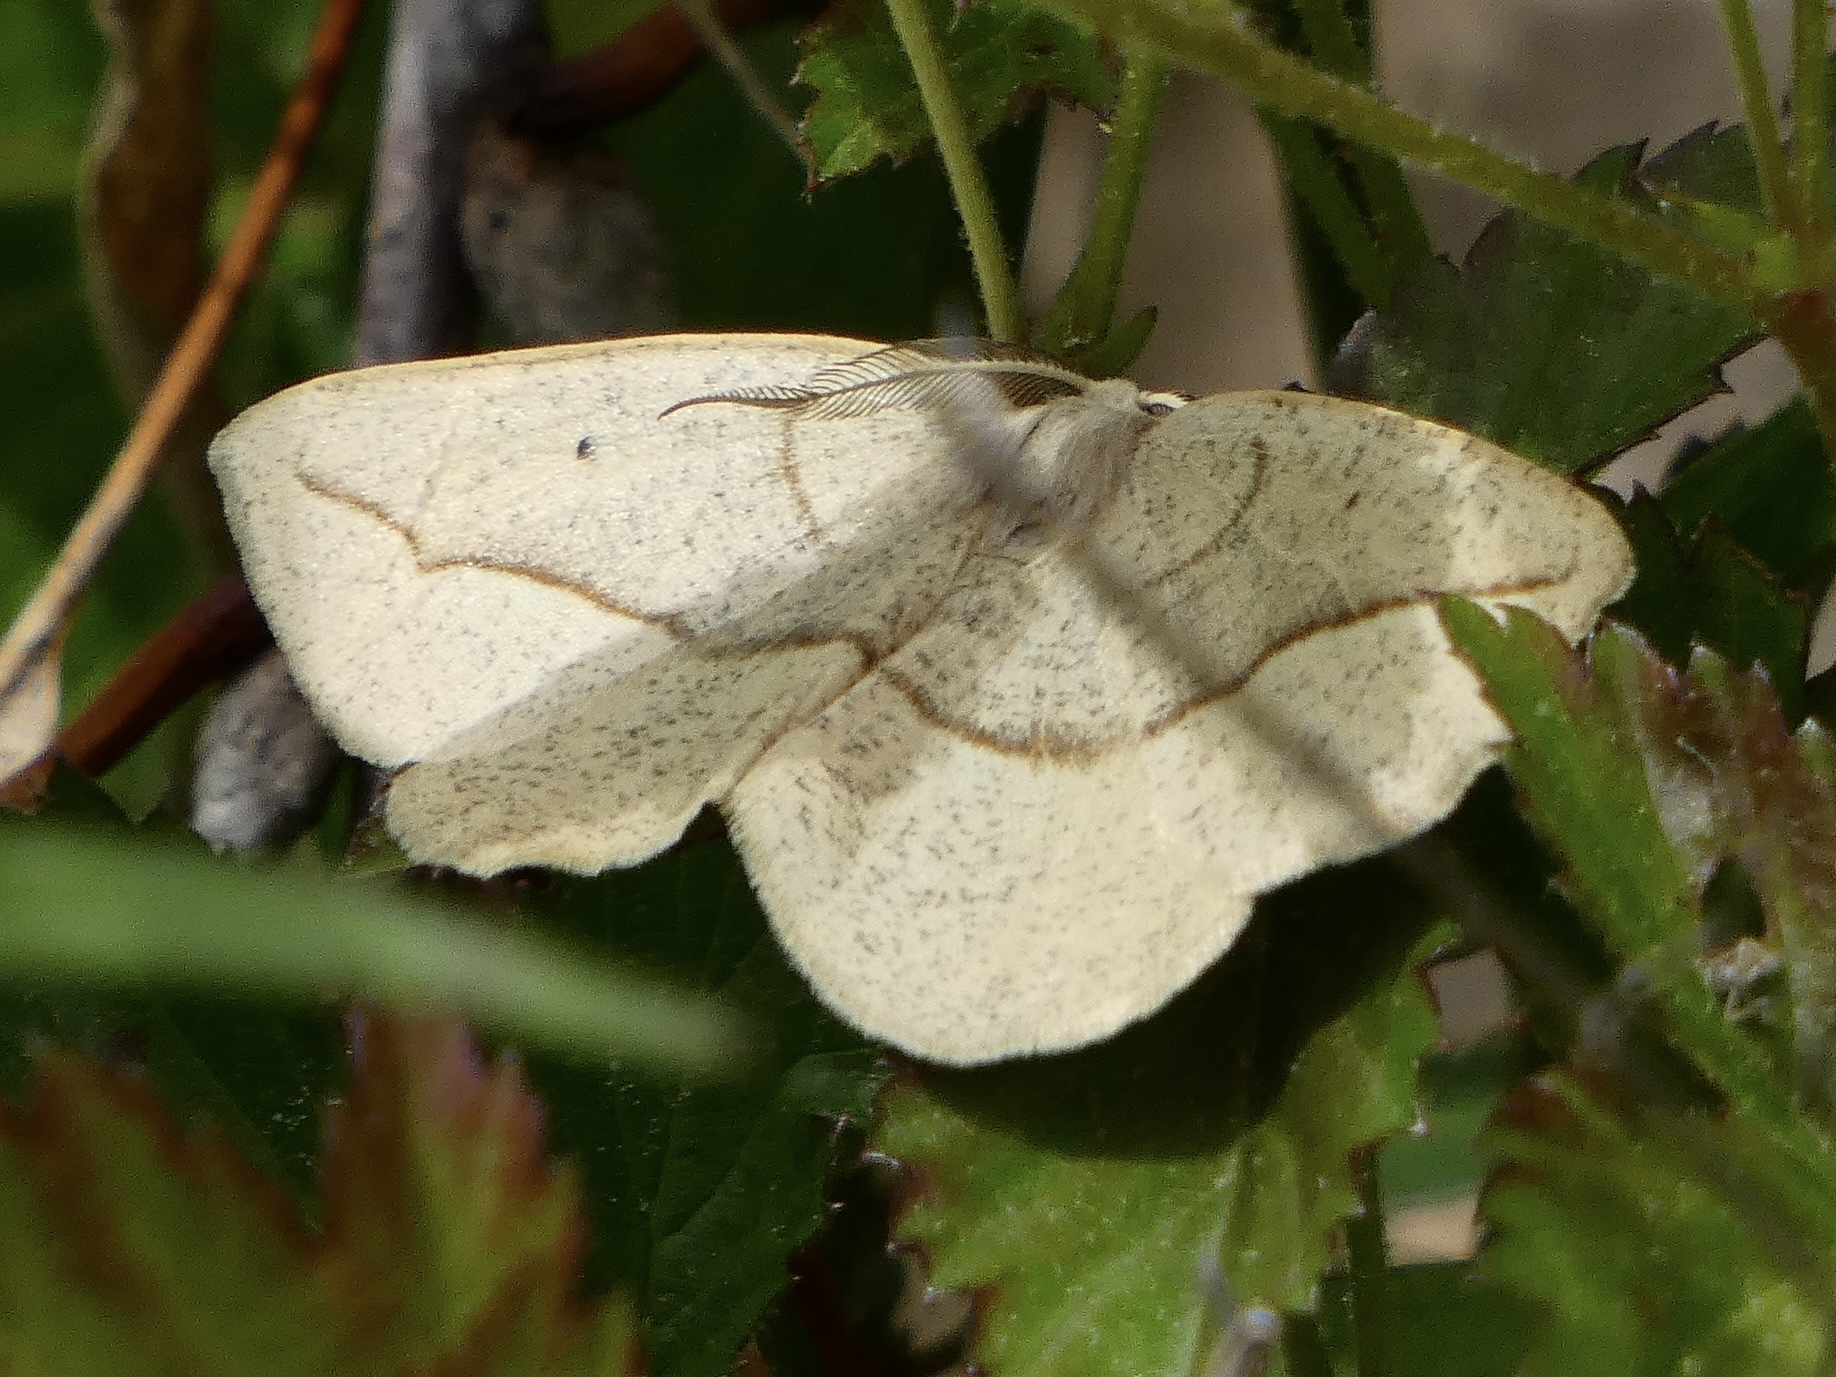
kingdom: Animalia
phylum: Arthropoda
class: Insecta
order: Lepidoptera
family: Geometridae
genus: Eusarca
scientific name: Eusarca confusaria
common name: Confused eusarca
